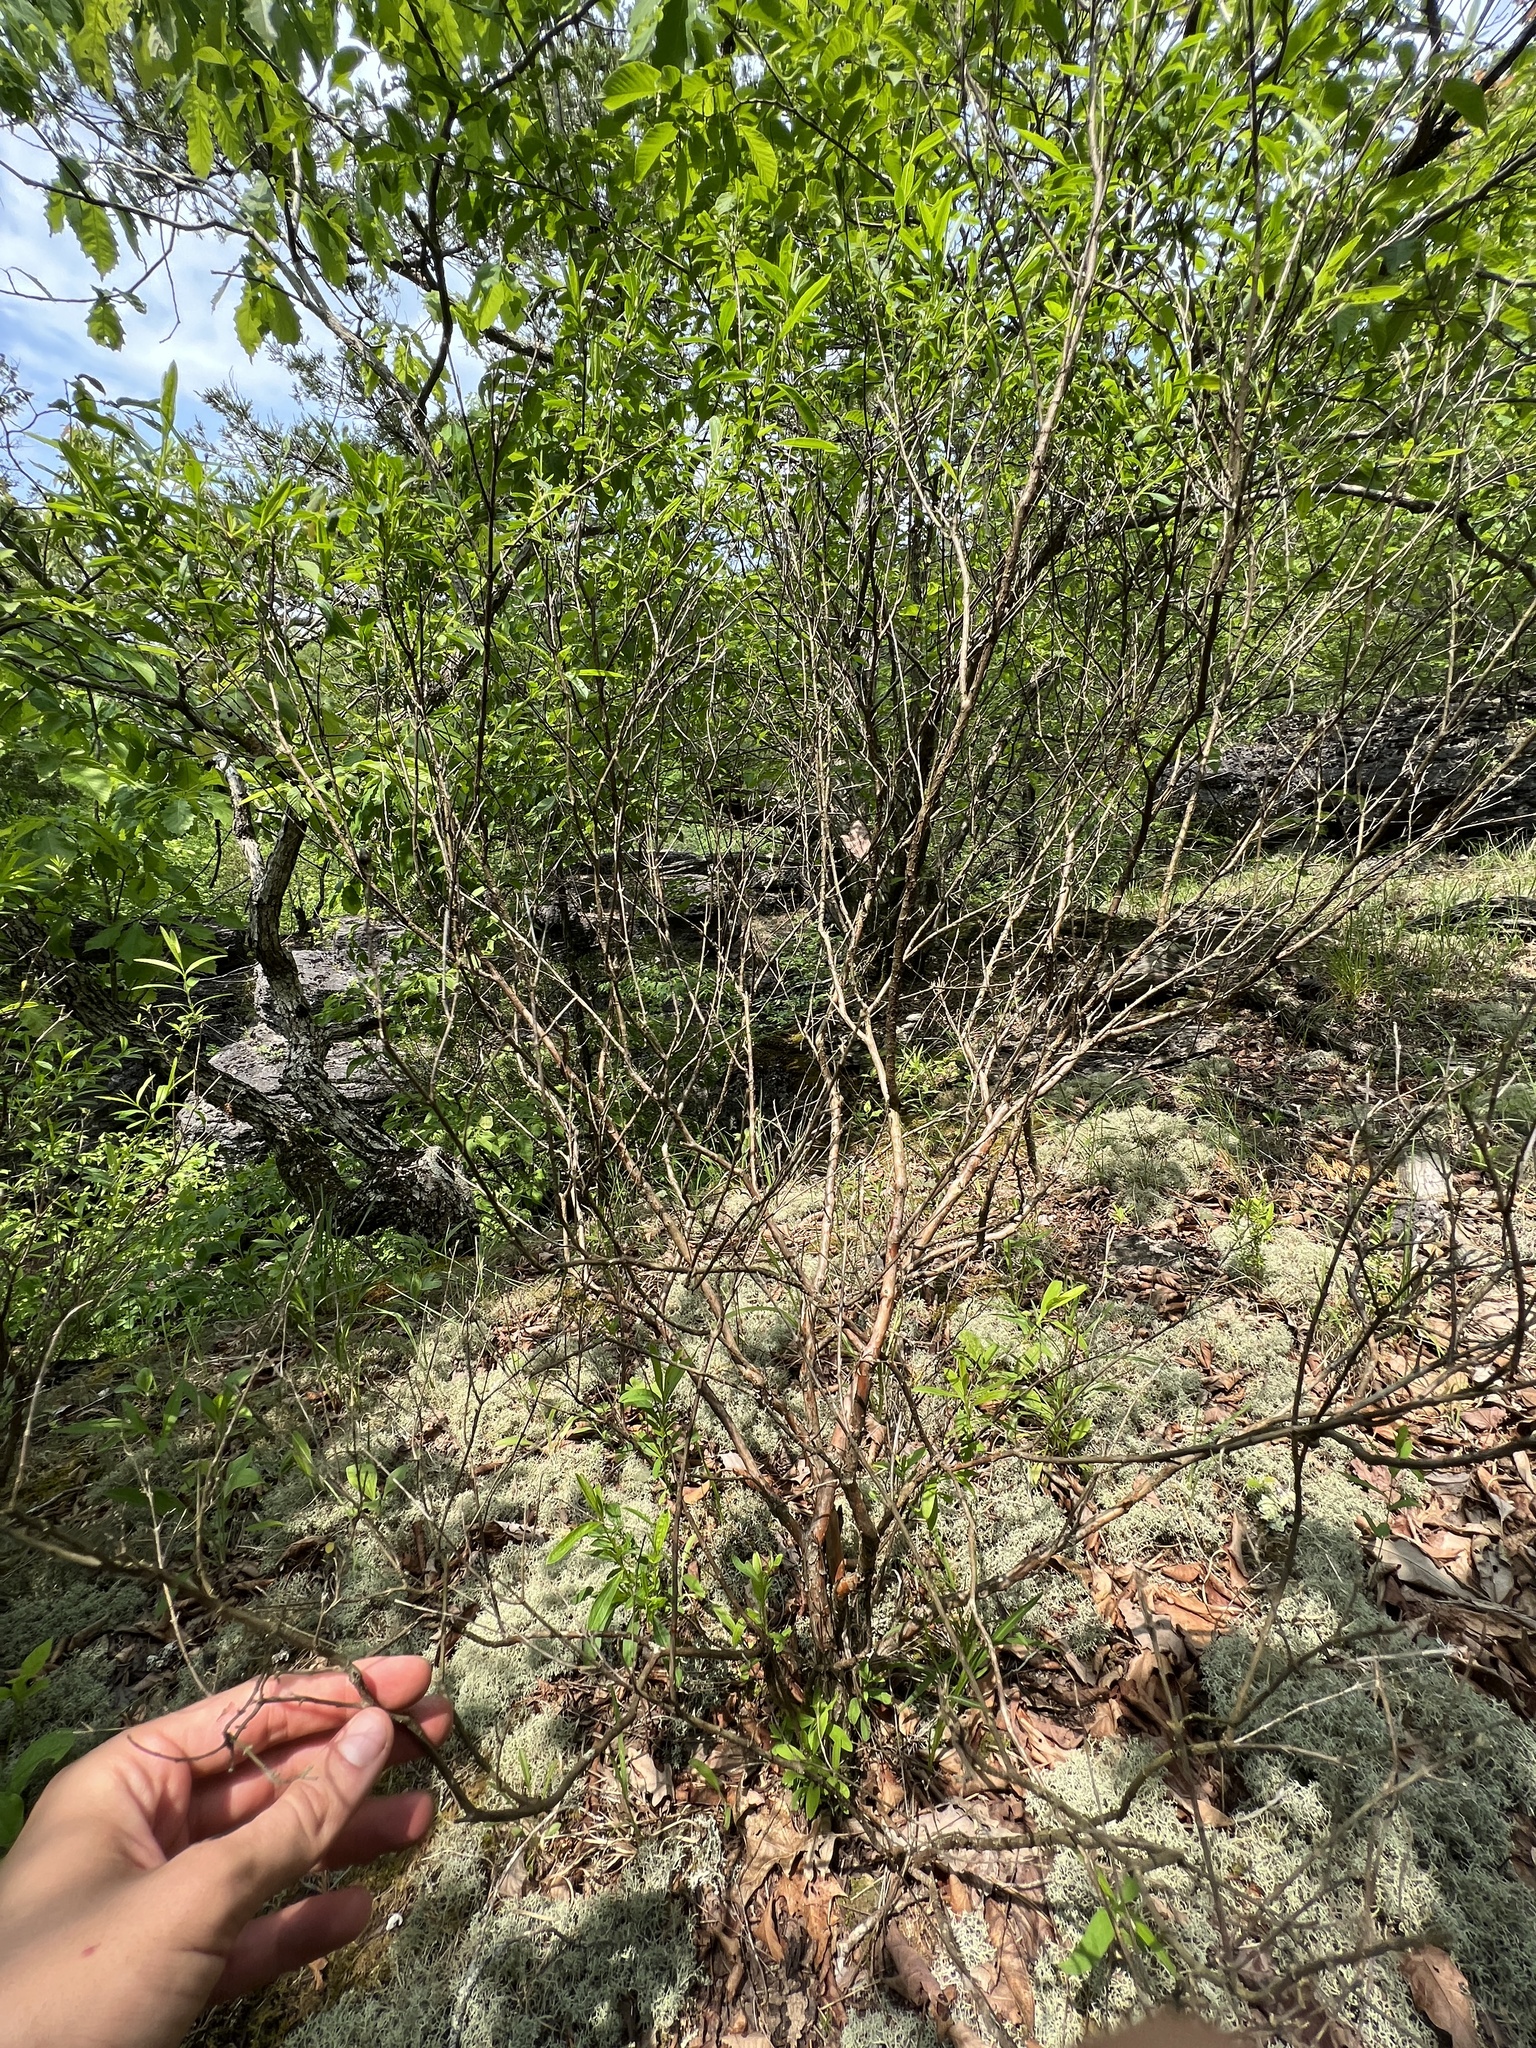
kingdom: Plantae
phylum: Tracheophyta
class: Magnoliopsida
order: Malpighiales
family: Hypericaceae
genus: Hypericum
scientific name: Hypericum prolificum
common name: Shrubby st. john's-wort
